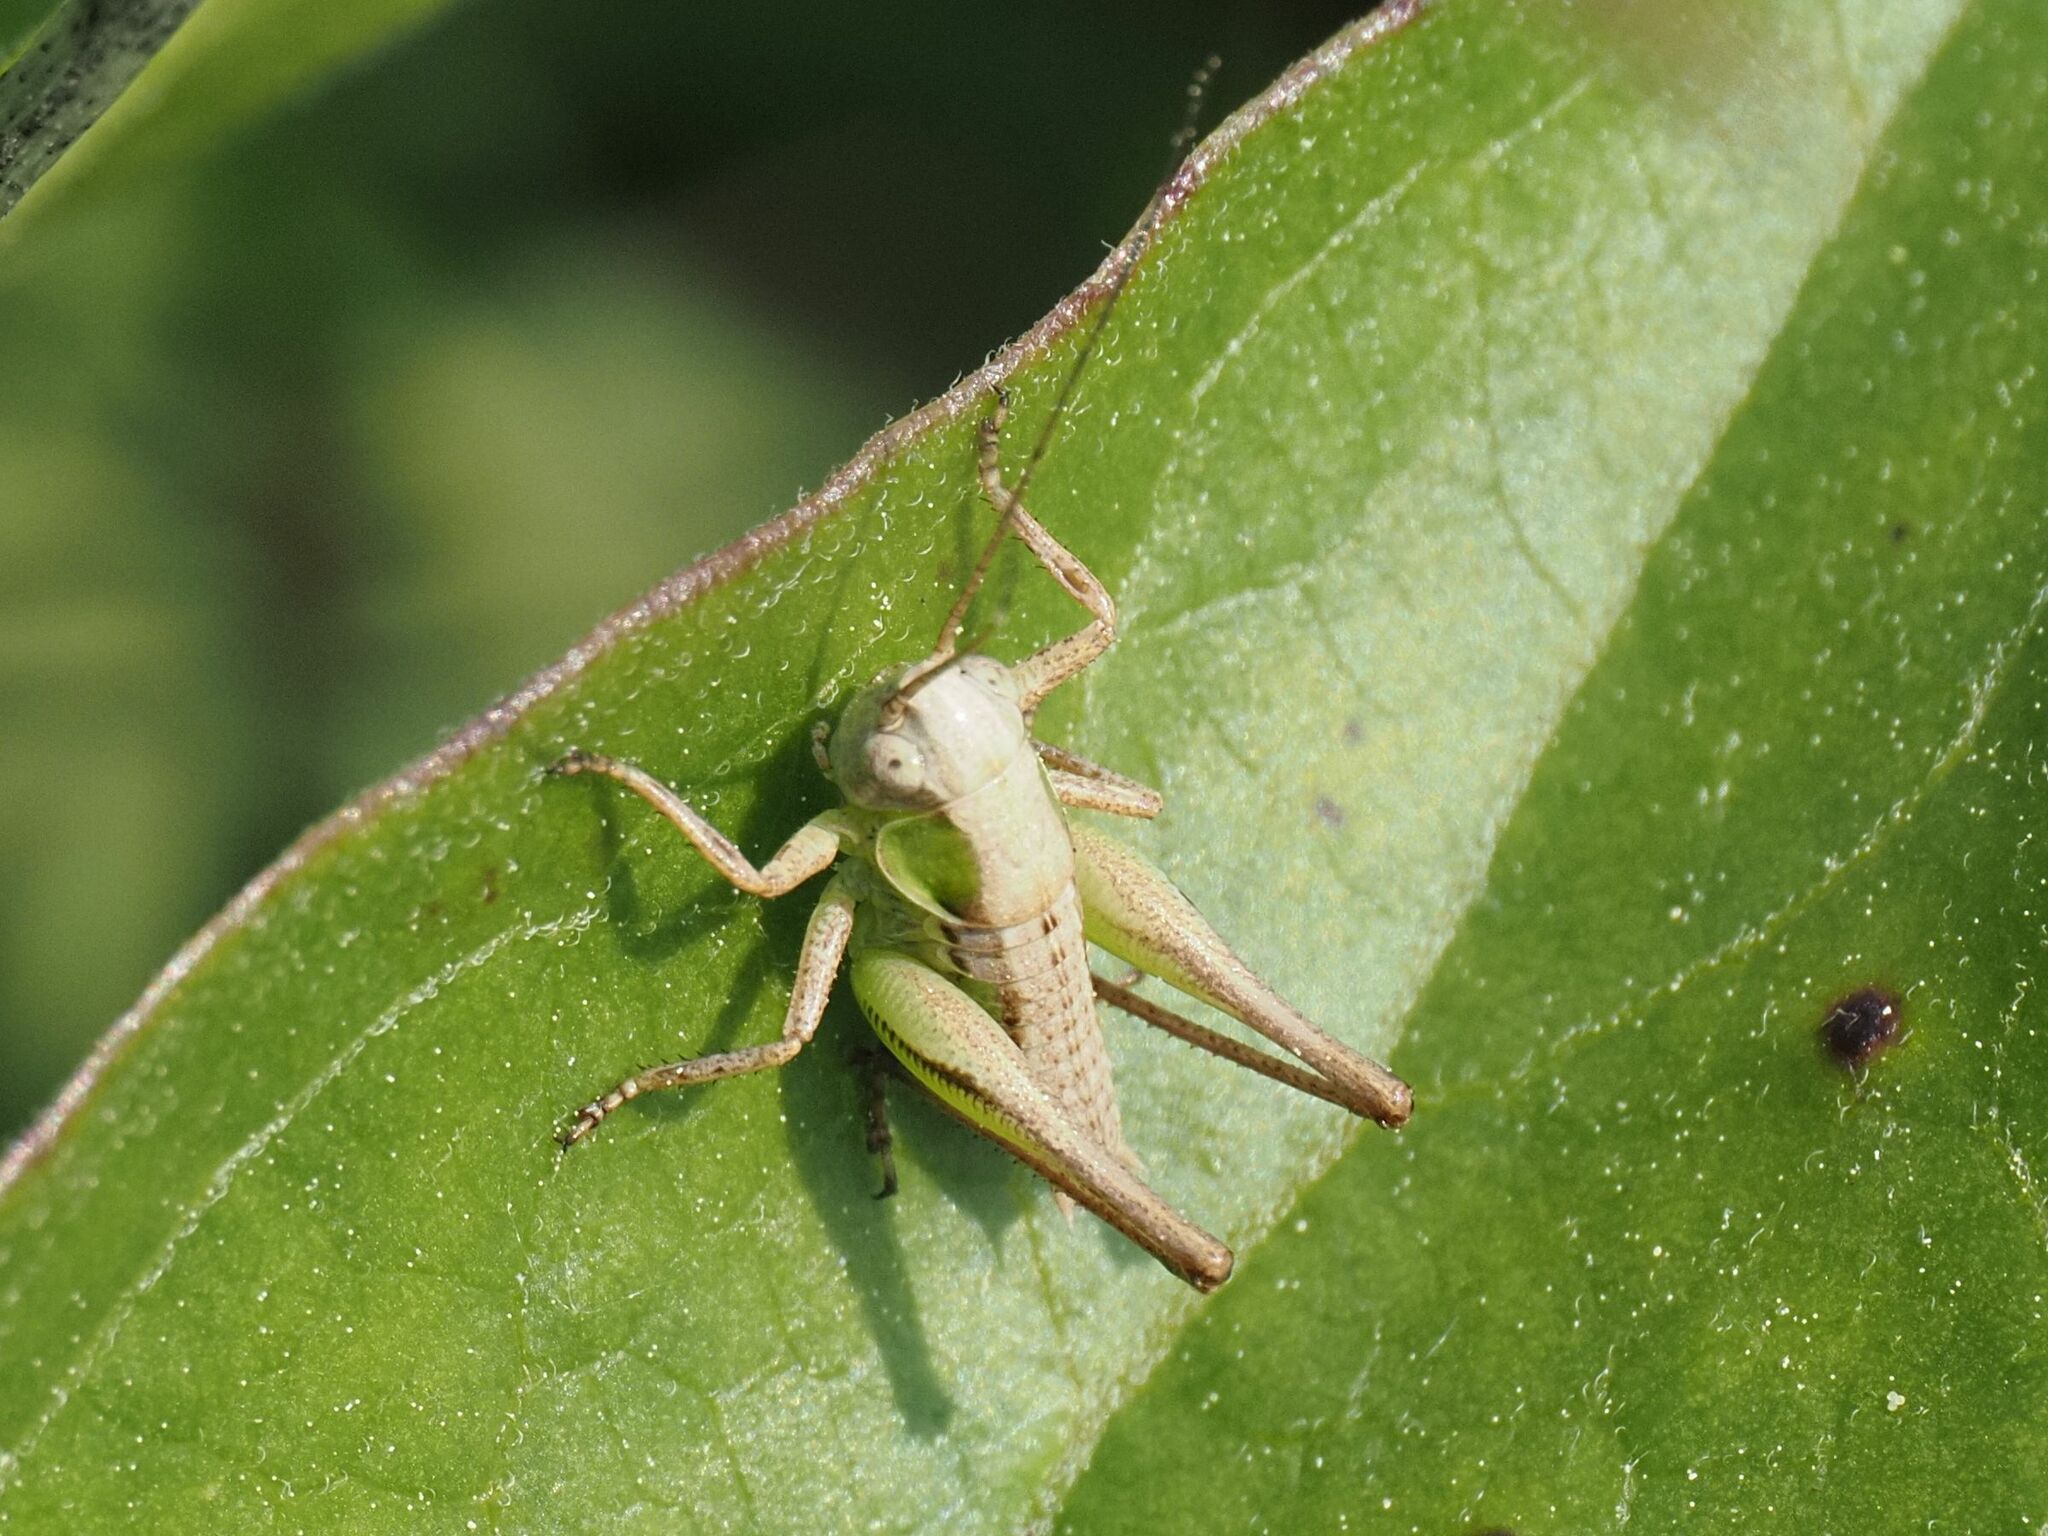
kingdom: Animalia
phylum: Arthropoda
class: Insecta
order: Orthoptera
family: Tettigoniidae
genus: Platycleis
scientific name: Platycleis grisea
